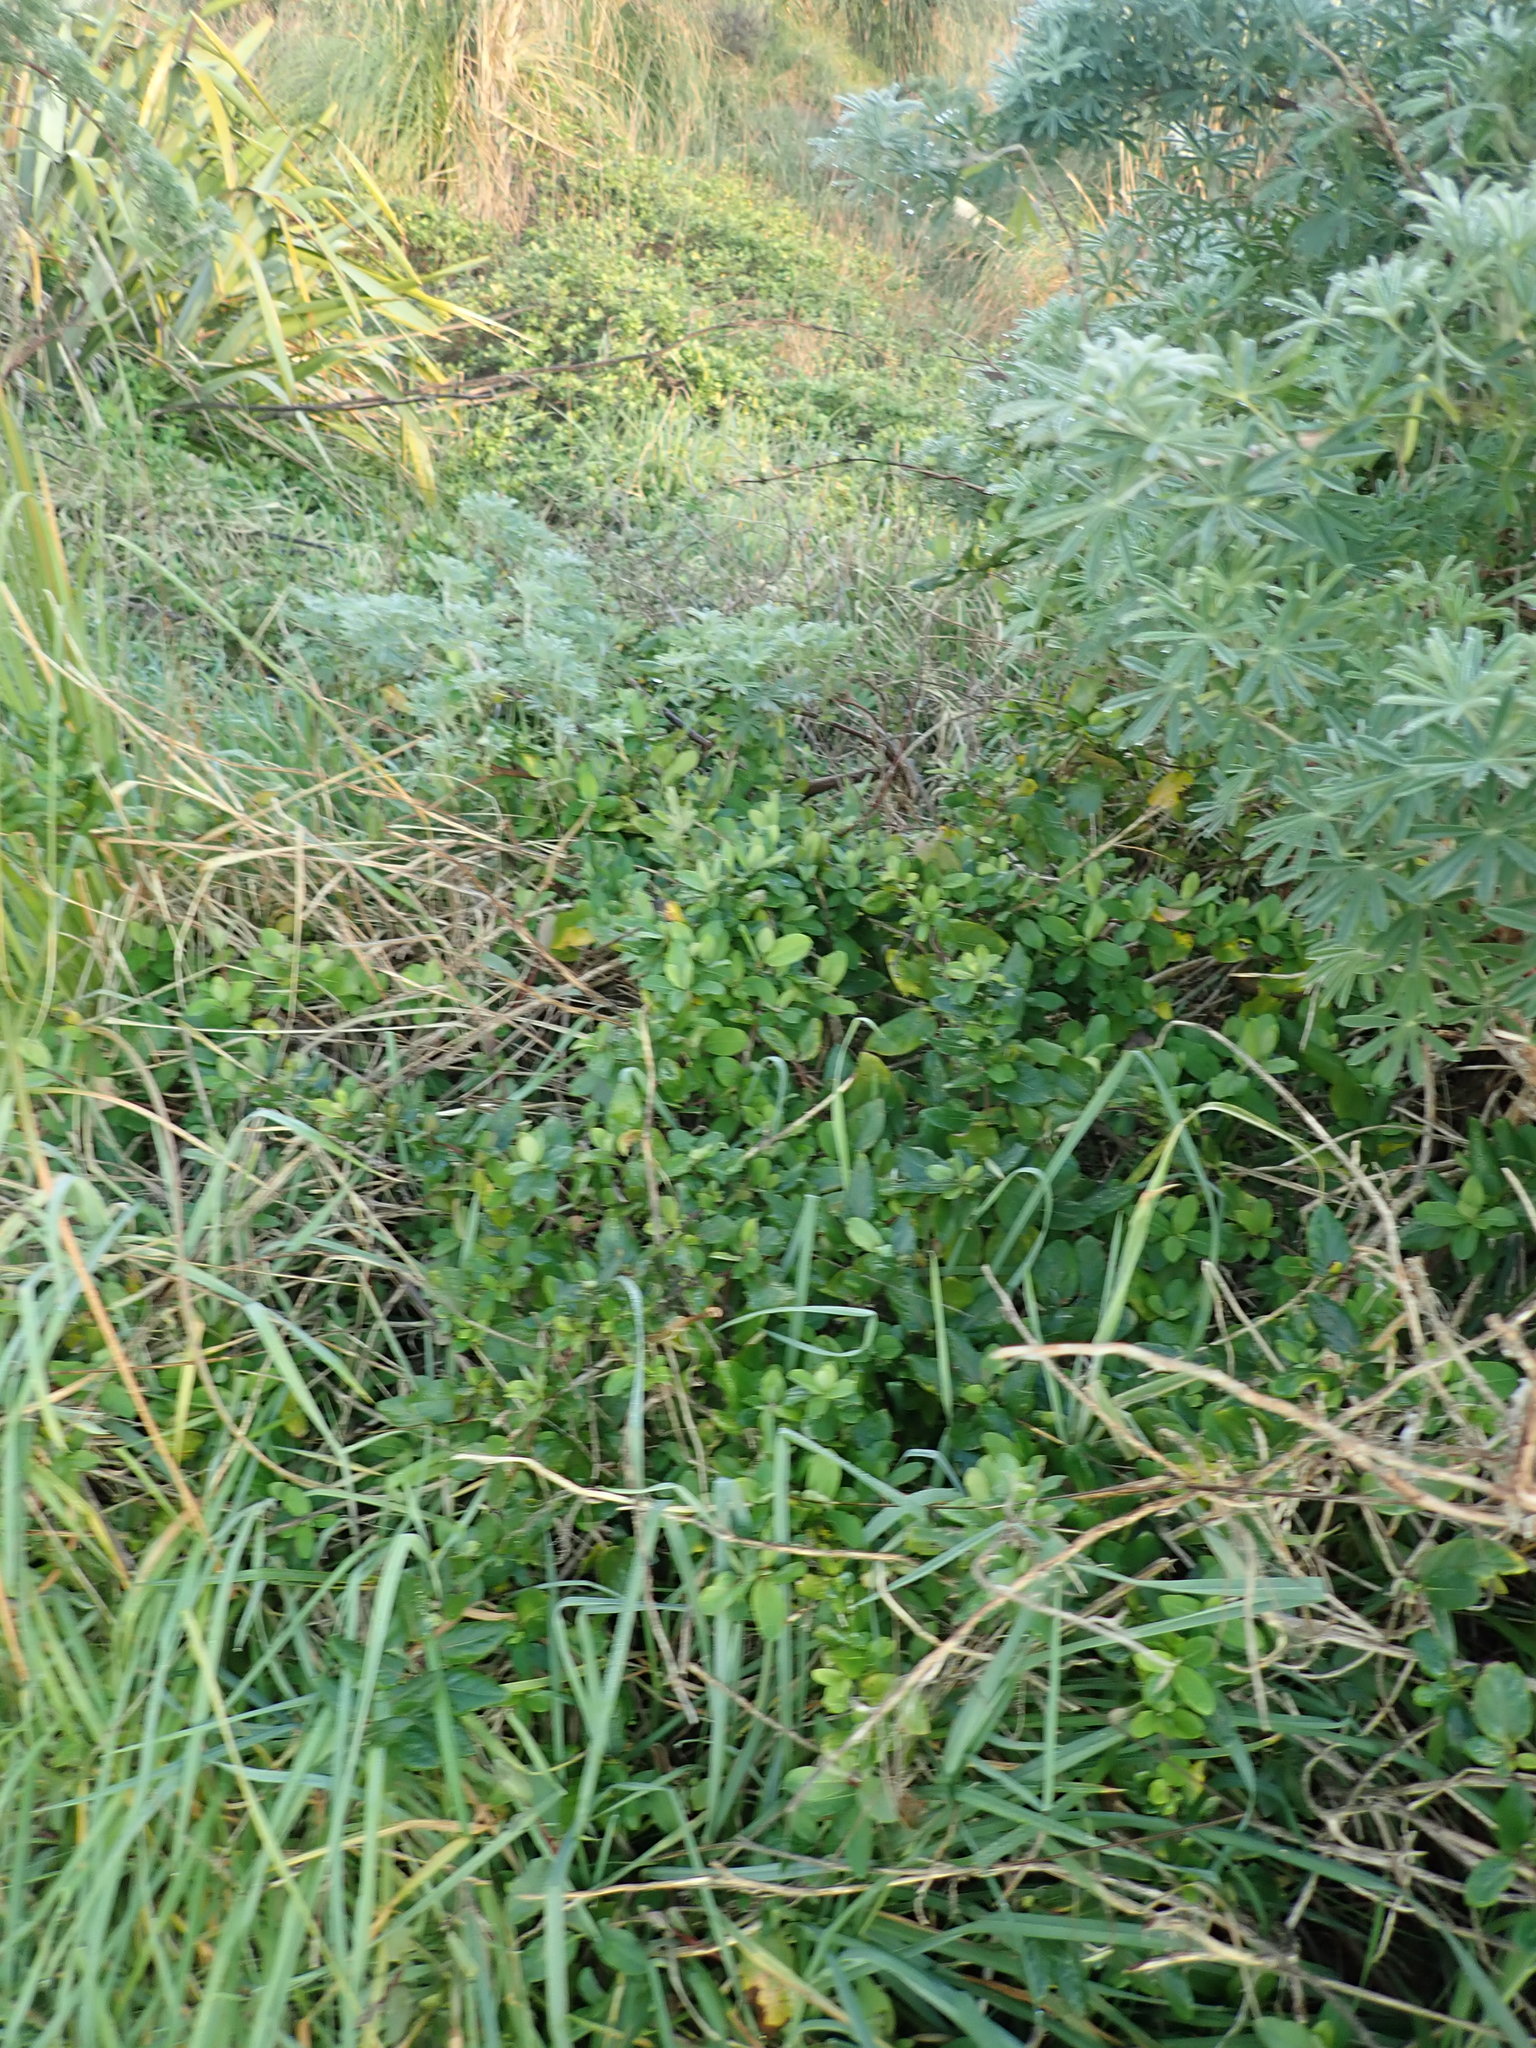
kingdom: Plantae
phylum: Tracheophyta
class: Magnoliopsida
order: Dipsacales
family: Caprifoliaceae
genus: Lonicera
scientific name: Lonicera japonica
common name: Japanese honeysuckle
